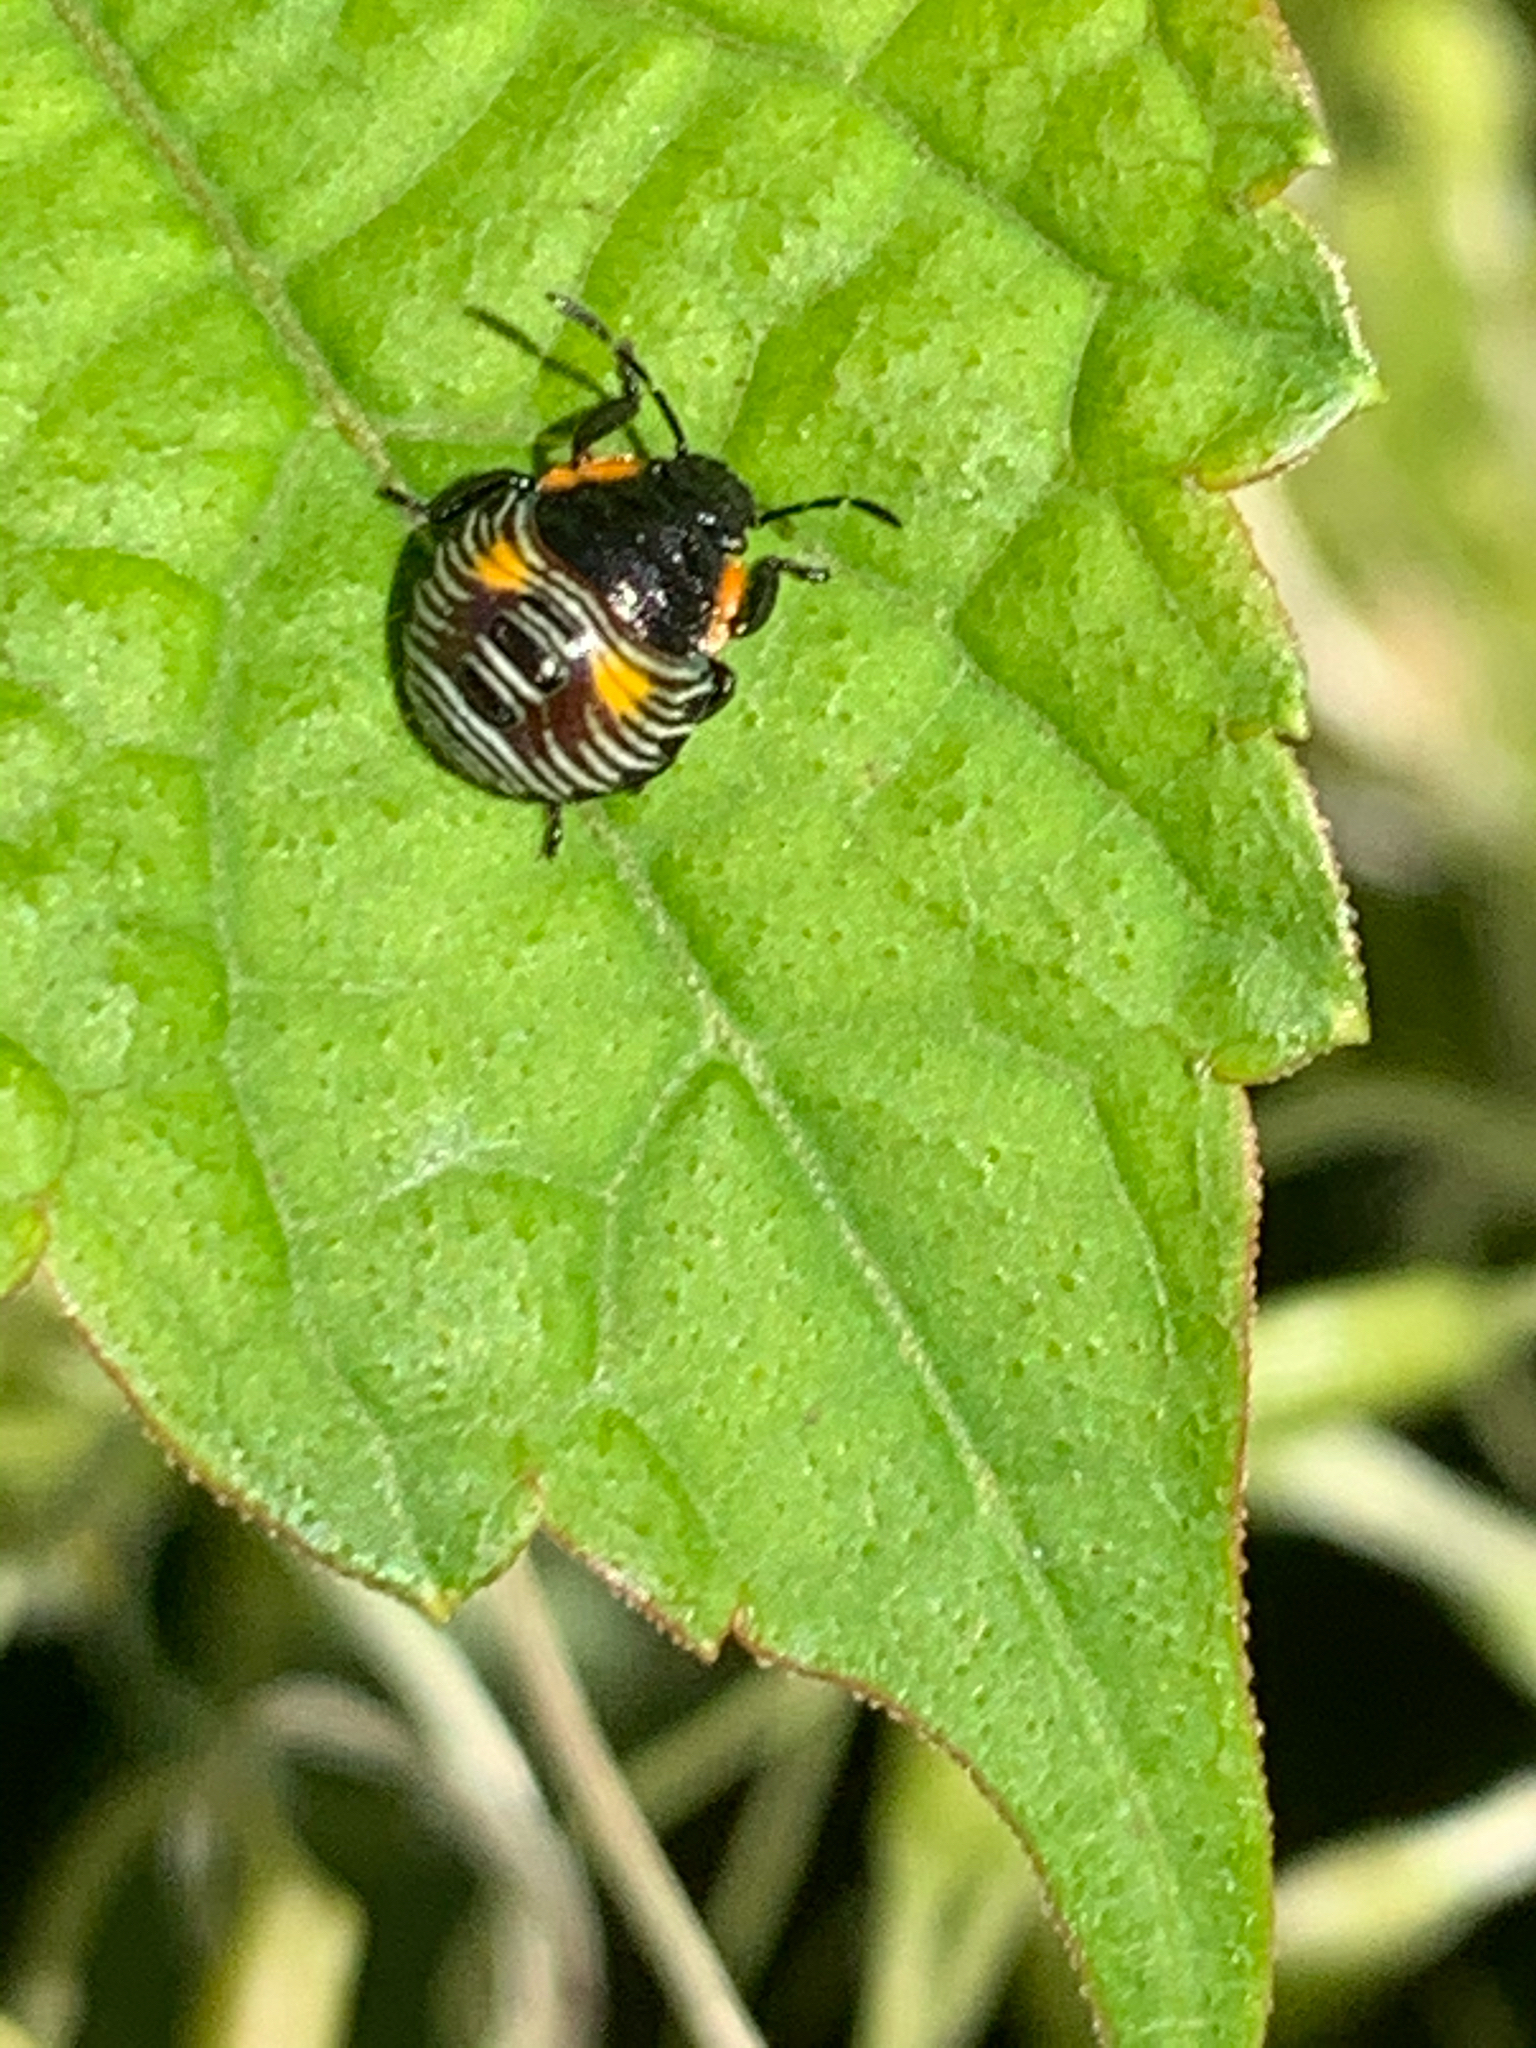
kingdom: Animalia
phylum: Arthropoda
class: Insecta
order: Hemiptera
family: Pentatomidae
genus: Chinavia
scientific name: Chinavia hilaris
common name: Green stink bug
